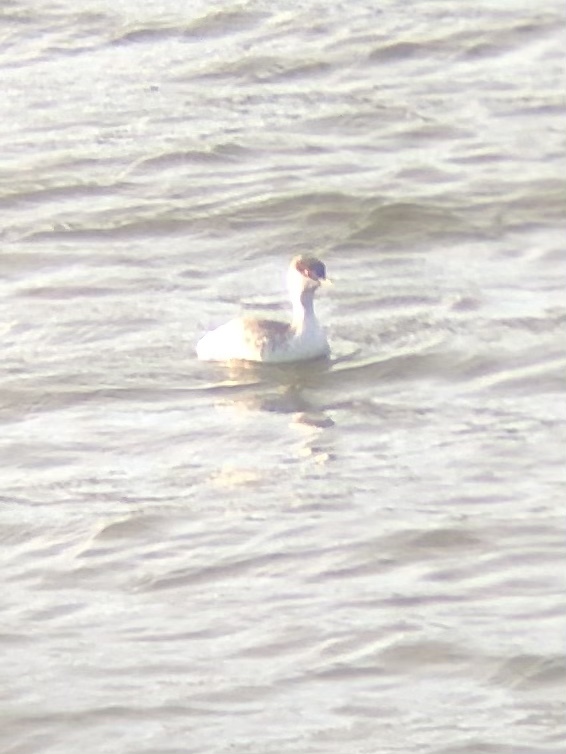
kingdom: Animalia
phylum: Chordata
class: Aves
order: Podicipediformes
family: Podicipedidae
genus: Aechmophorus
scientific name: Aechmophorus occidentalis
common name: Western grebe
